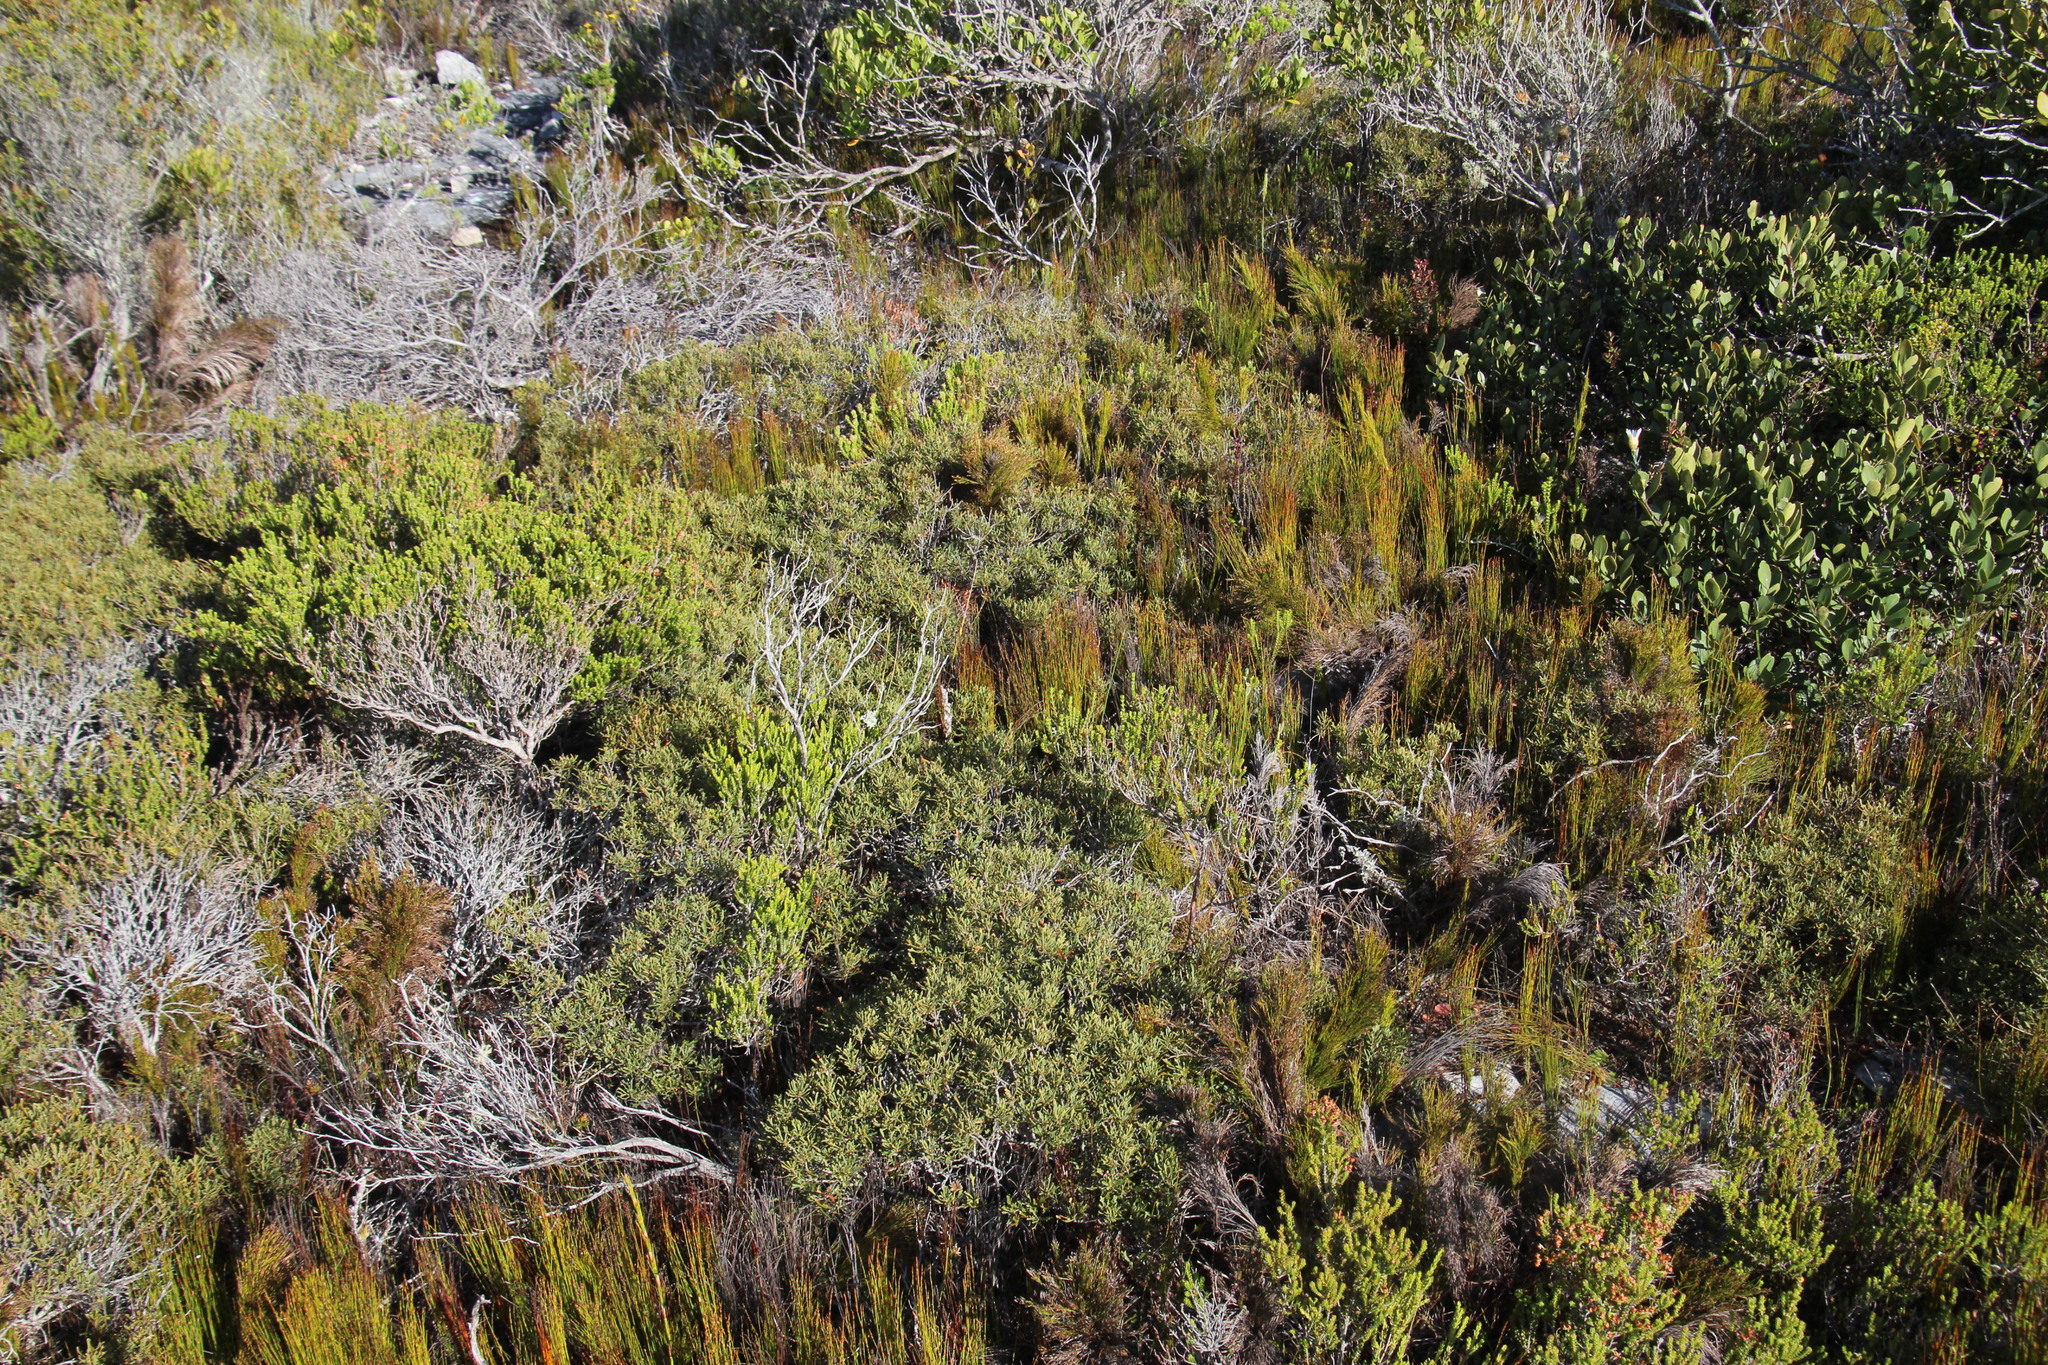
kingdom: Plantae
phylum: Tracheophyta
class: Magnoliopsida
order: Fagales
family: Myricaceae
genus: Morella
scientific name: Morella quercifolia
